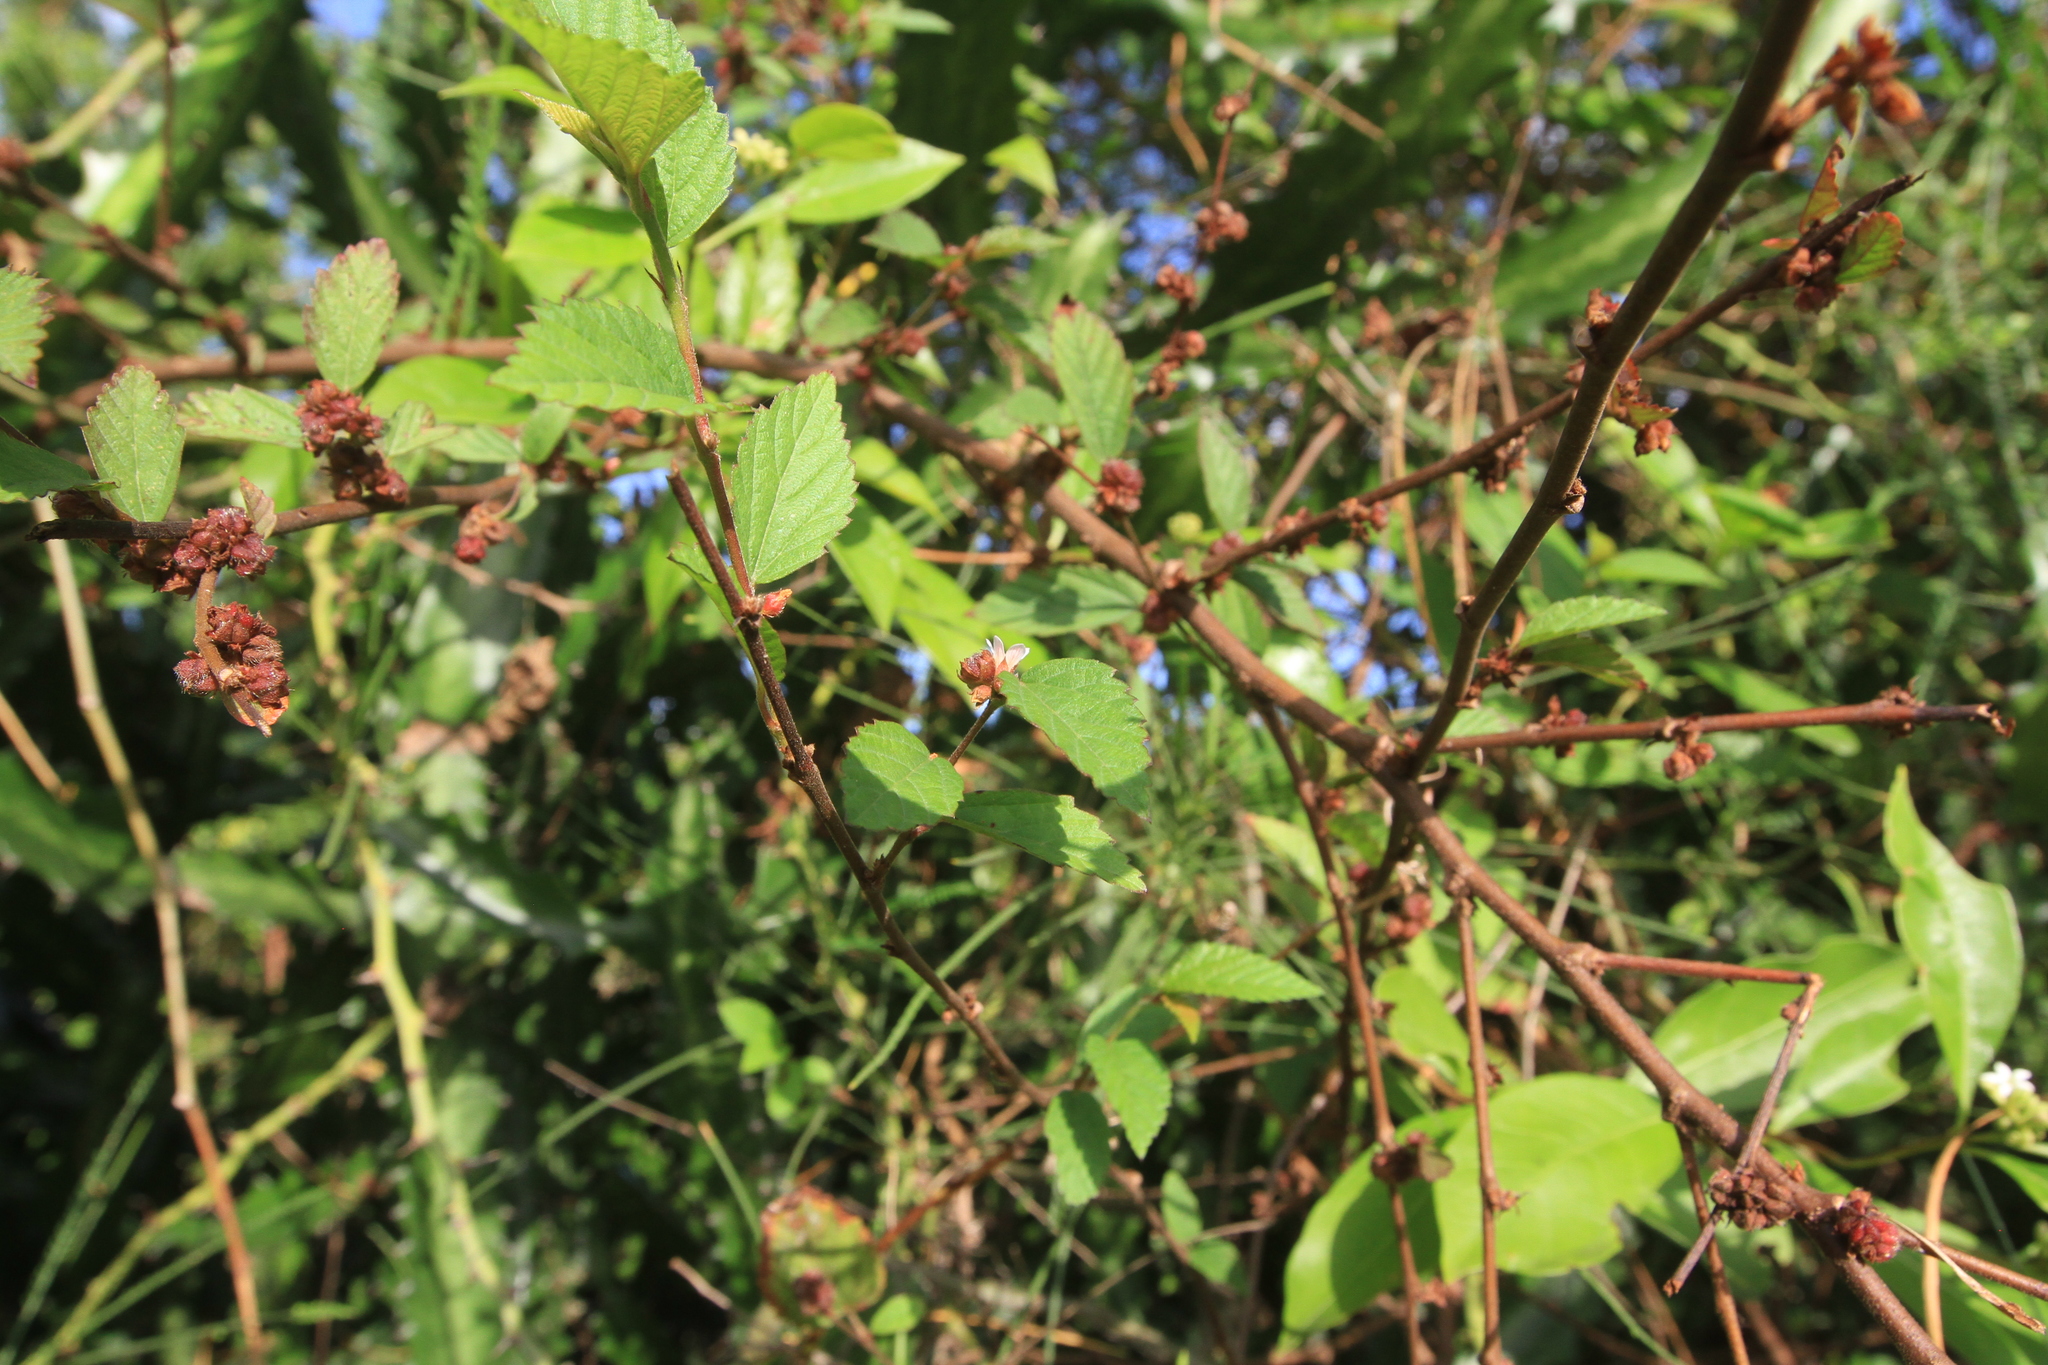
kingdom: Plantae
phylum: Tracheophyta
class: Magnoliopsida
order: Malvales
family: Malvaceae
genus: Melochia
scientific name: Melochia nodiflora
